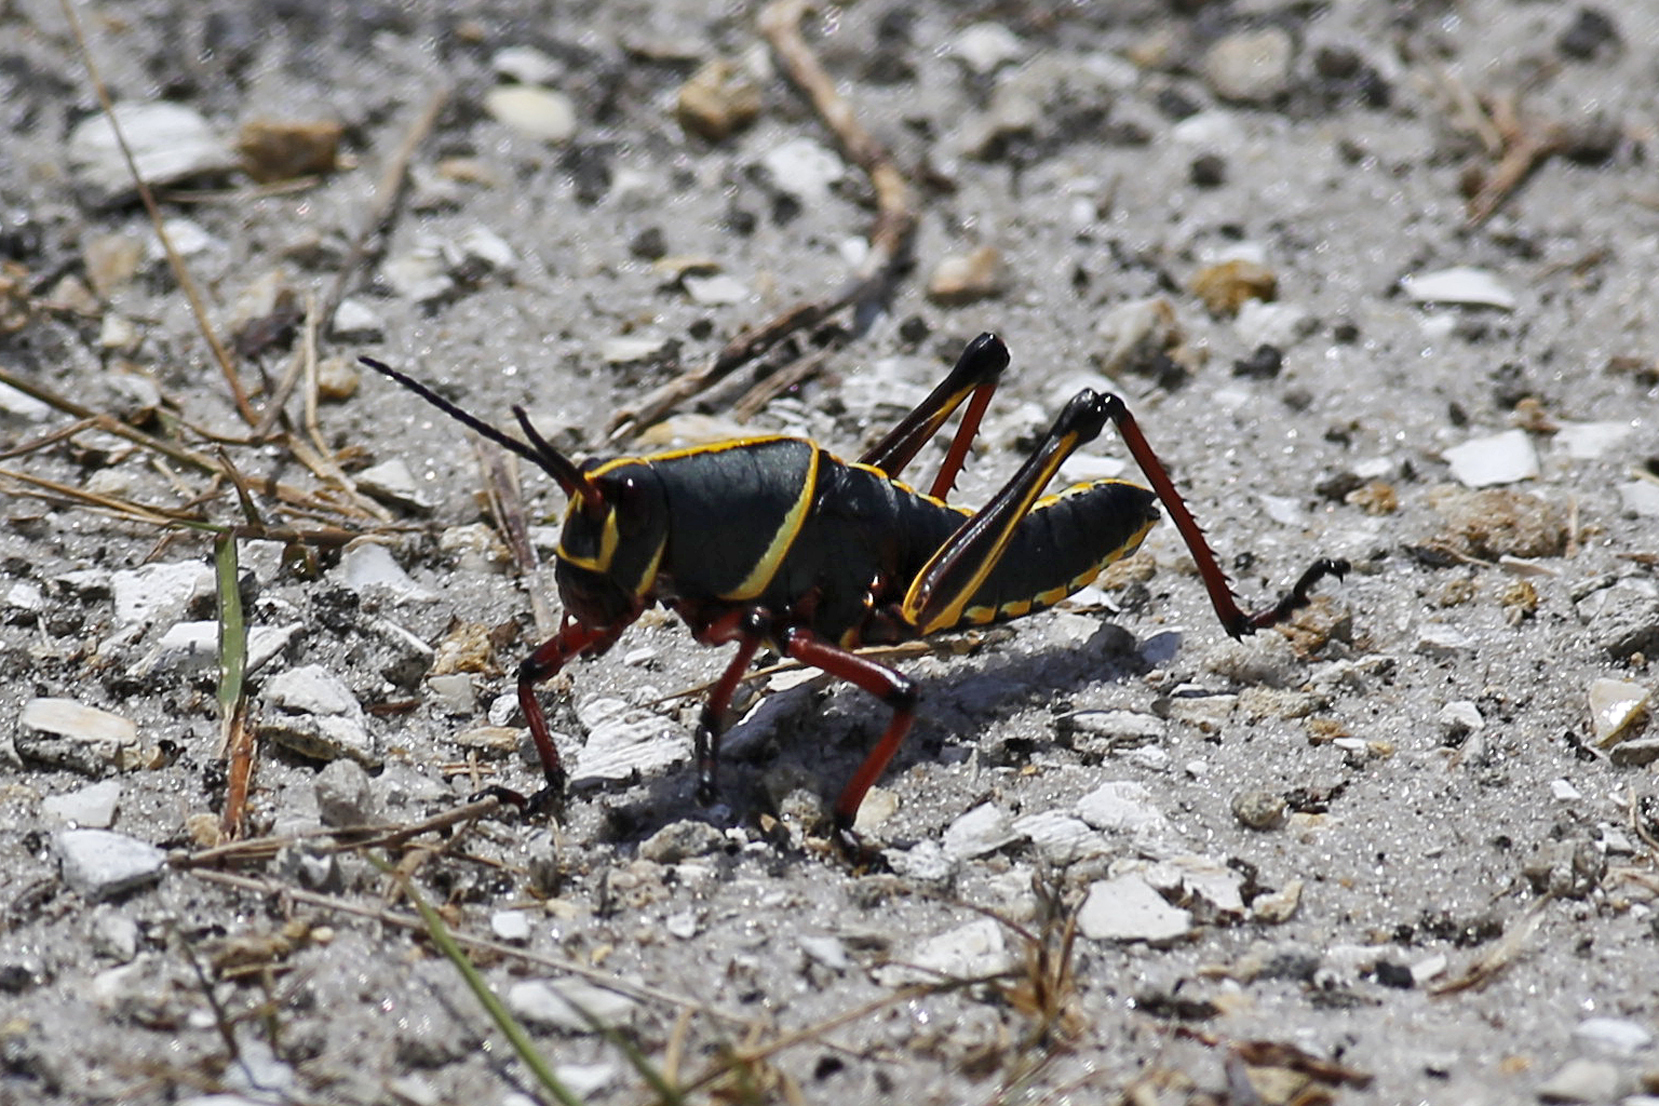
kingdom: Animalia
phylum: Arthropoda
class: Insecta
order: Orthoptera
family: Romaleidae
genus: Romalea
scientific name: Romalea microptera
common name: Eastern lubber grasshopper
